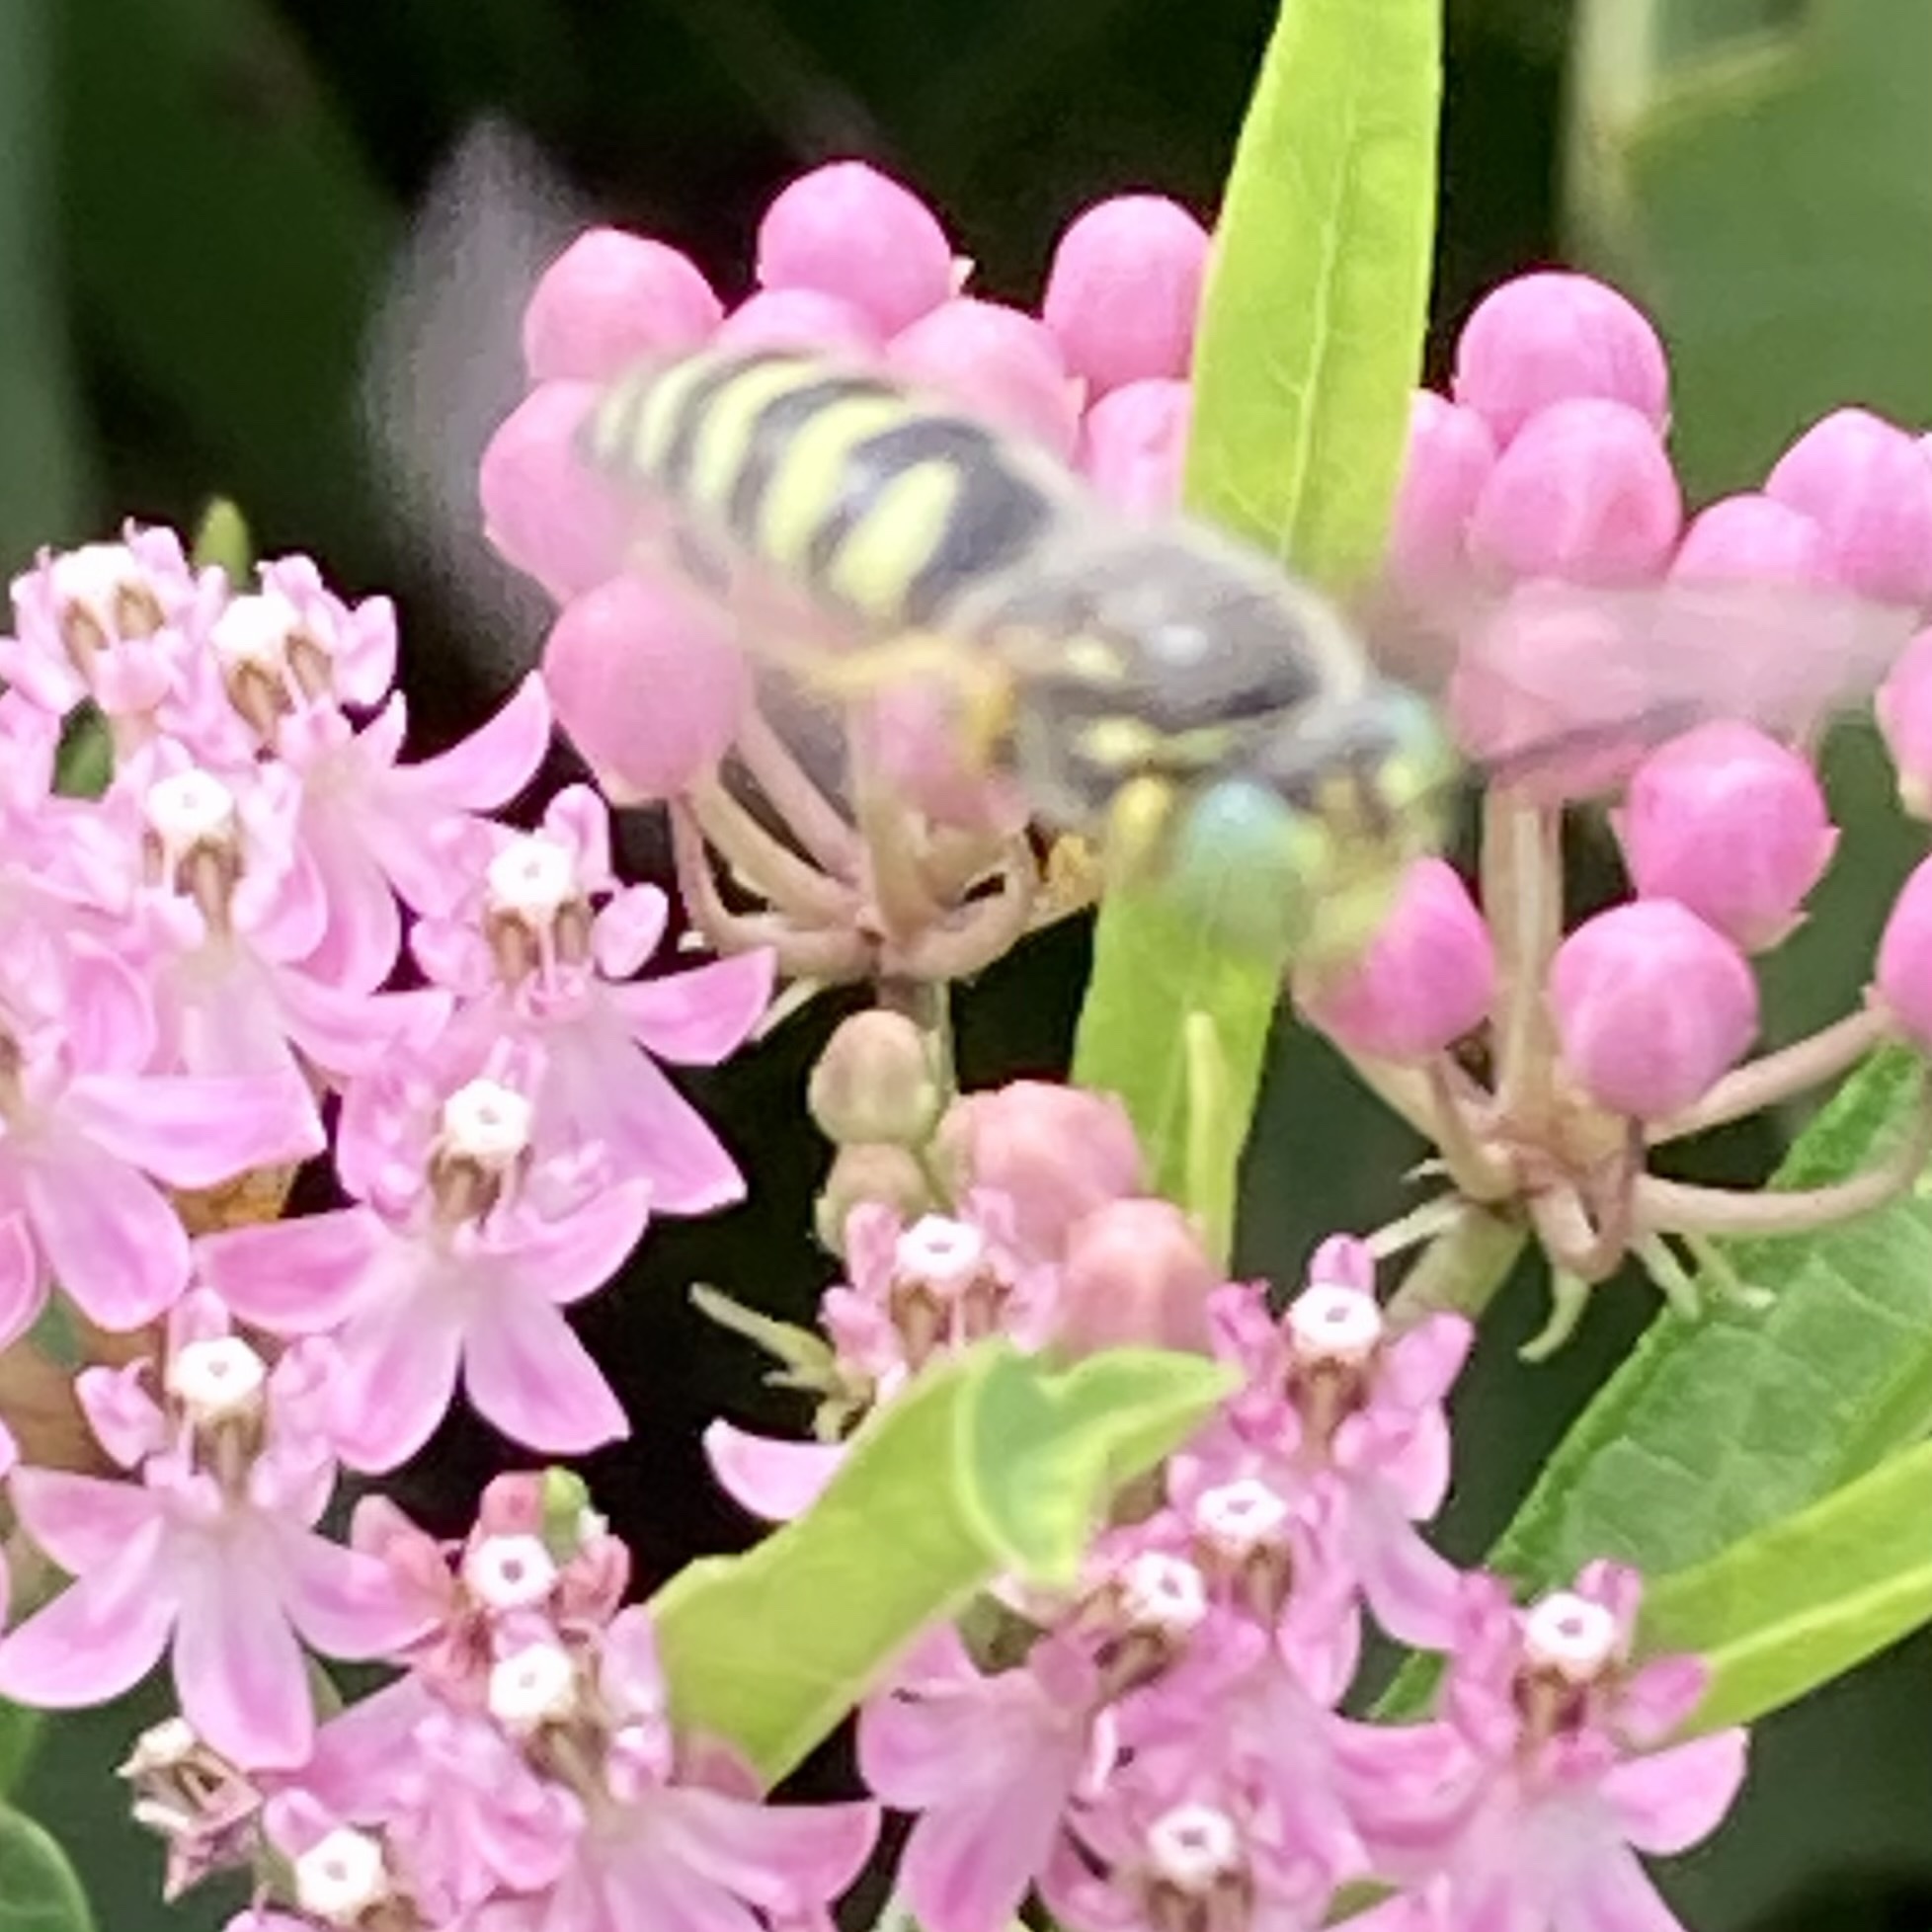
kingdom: Animalia
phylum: Arthropoda
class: Insecta
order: Hymenoptera
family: Crabronidae
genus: Bembix
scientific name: Bembix americana
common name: American sand wasp
